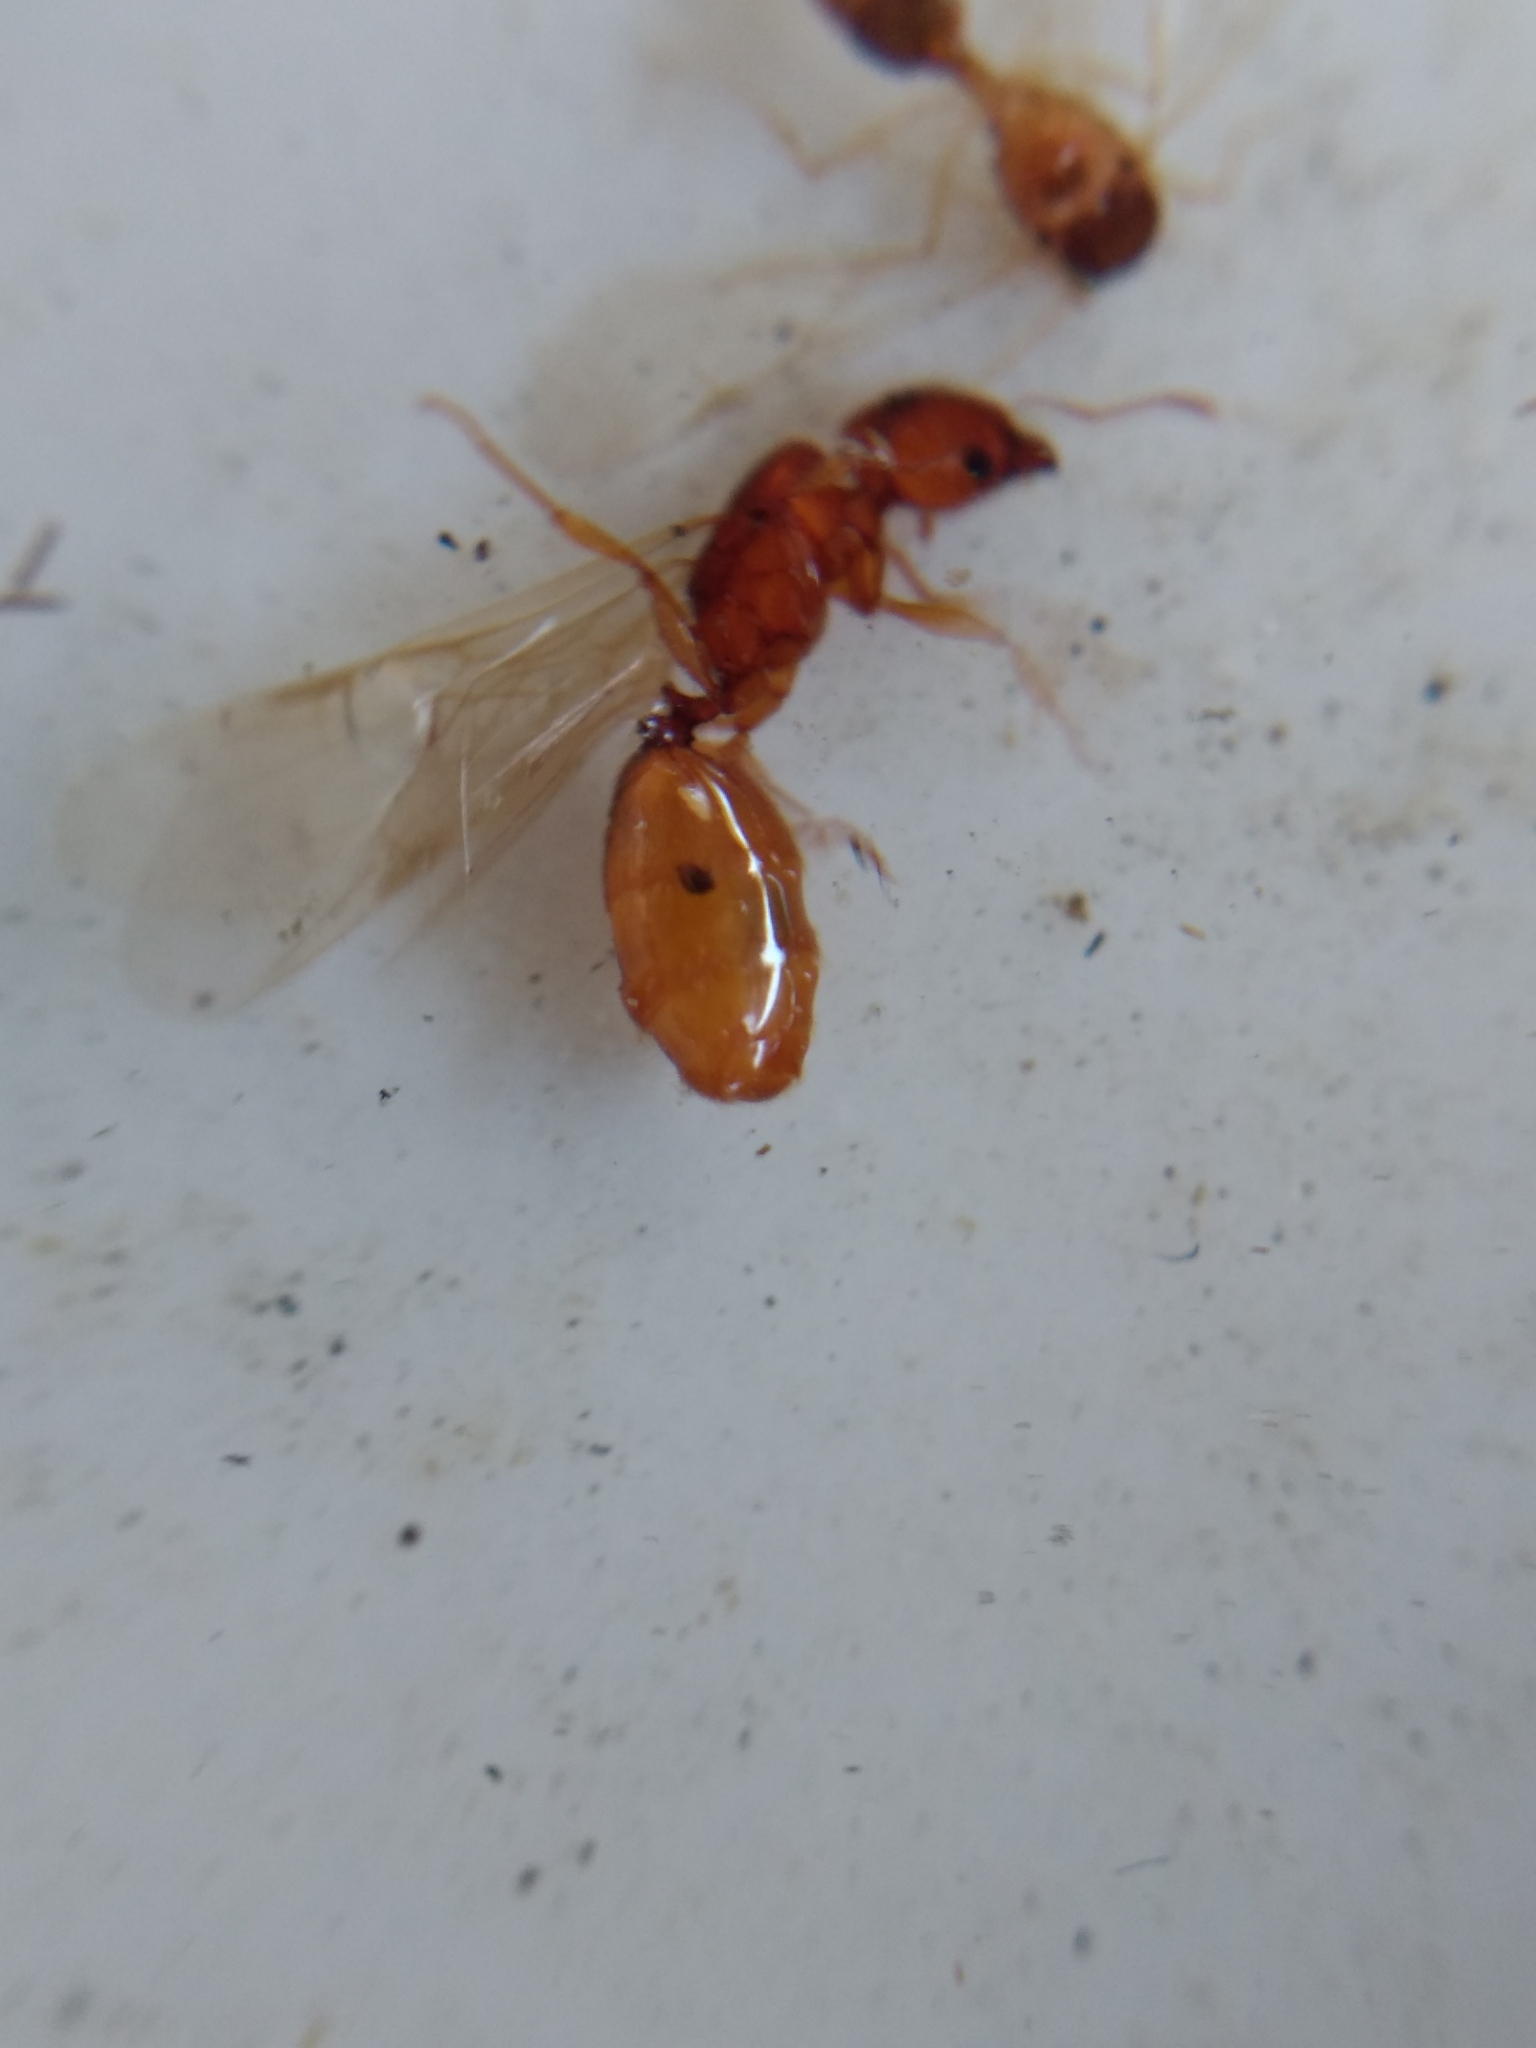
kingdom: Animalia
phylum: Arthropoda
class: Insecta
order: Hymenoptera
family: Formicidae
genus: Pheidole
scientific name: Pheidole cerebrosior
